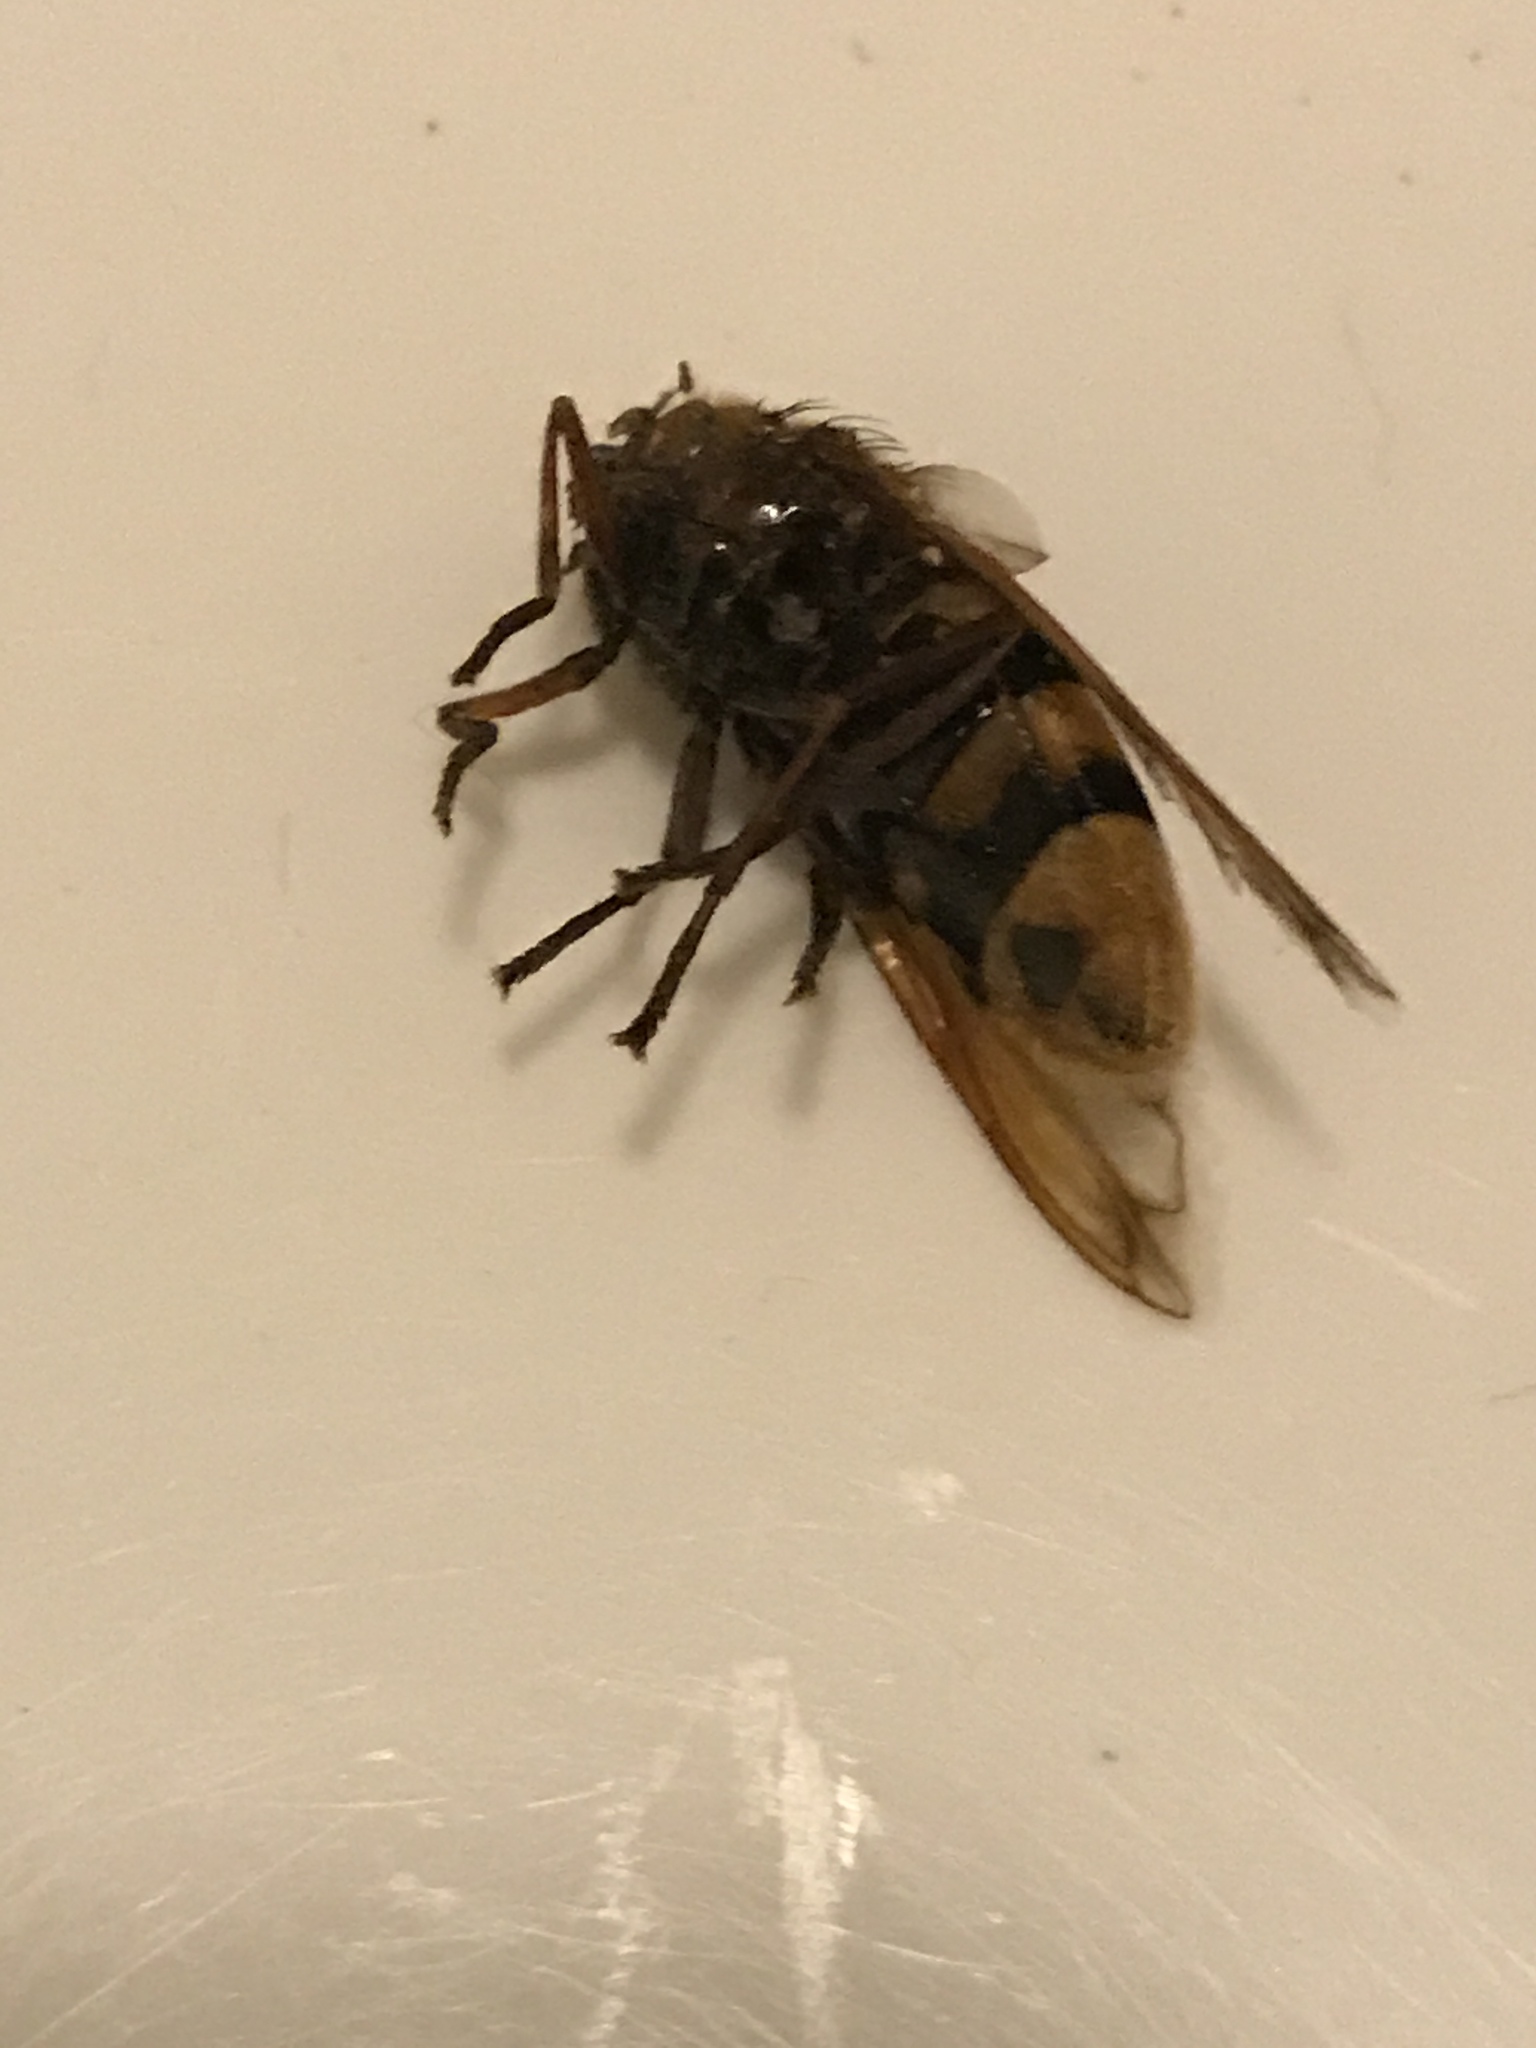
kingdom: Animalia
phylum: Arthropoda
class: Insecta
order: Diptera
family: Syrphidae
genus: Volucella
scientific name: Volucella zonaria
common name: Hornet hoverfly
